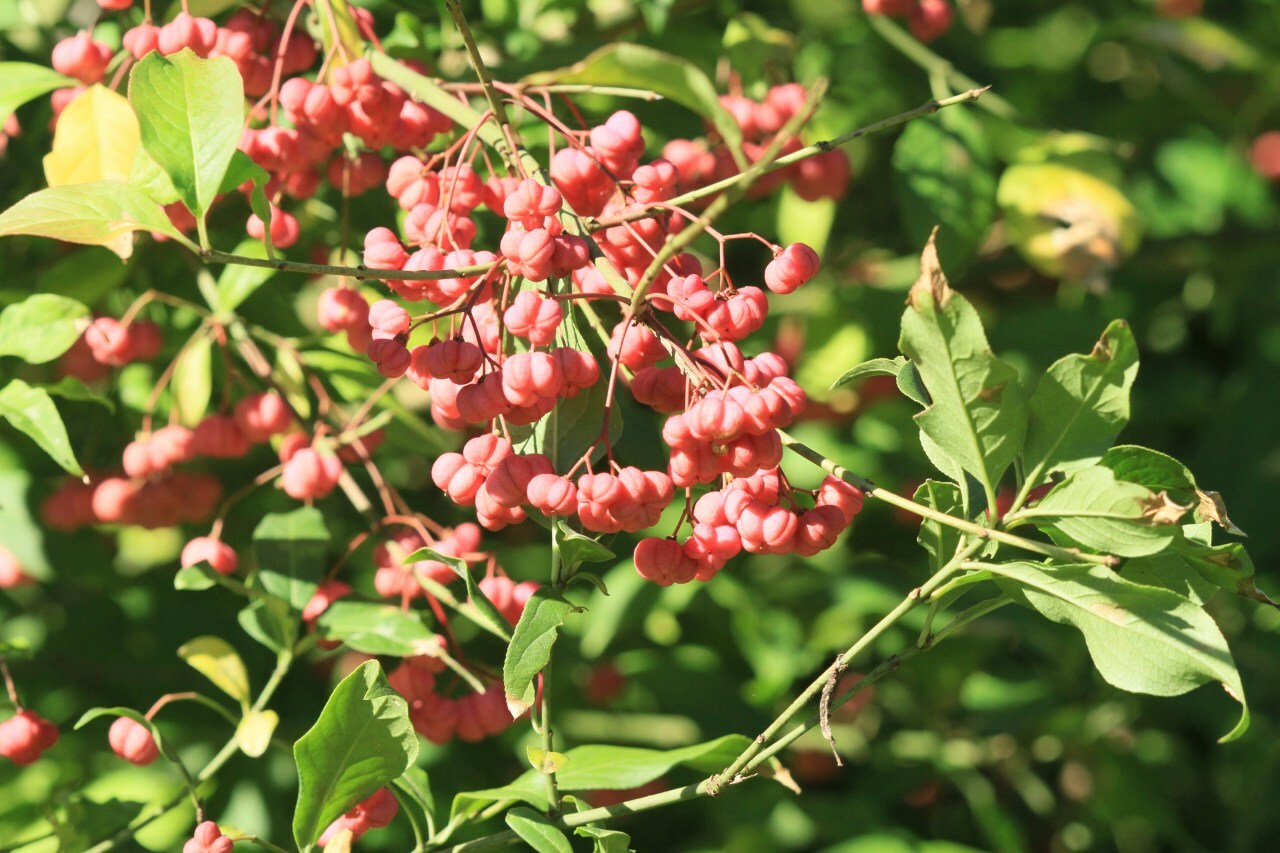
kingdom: Plantae
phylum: Tracheophyta
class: Magnoliopsida
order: Celastrales
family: Celastraceae
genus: Euonymus
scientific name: Euonymus europaeus
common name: Spindle
